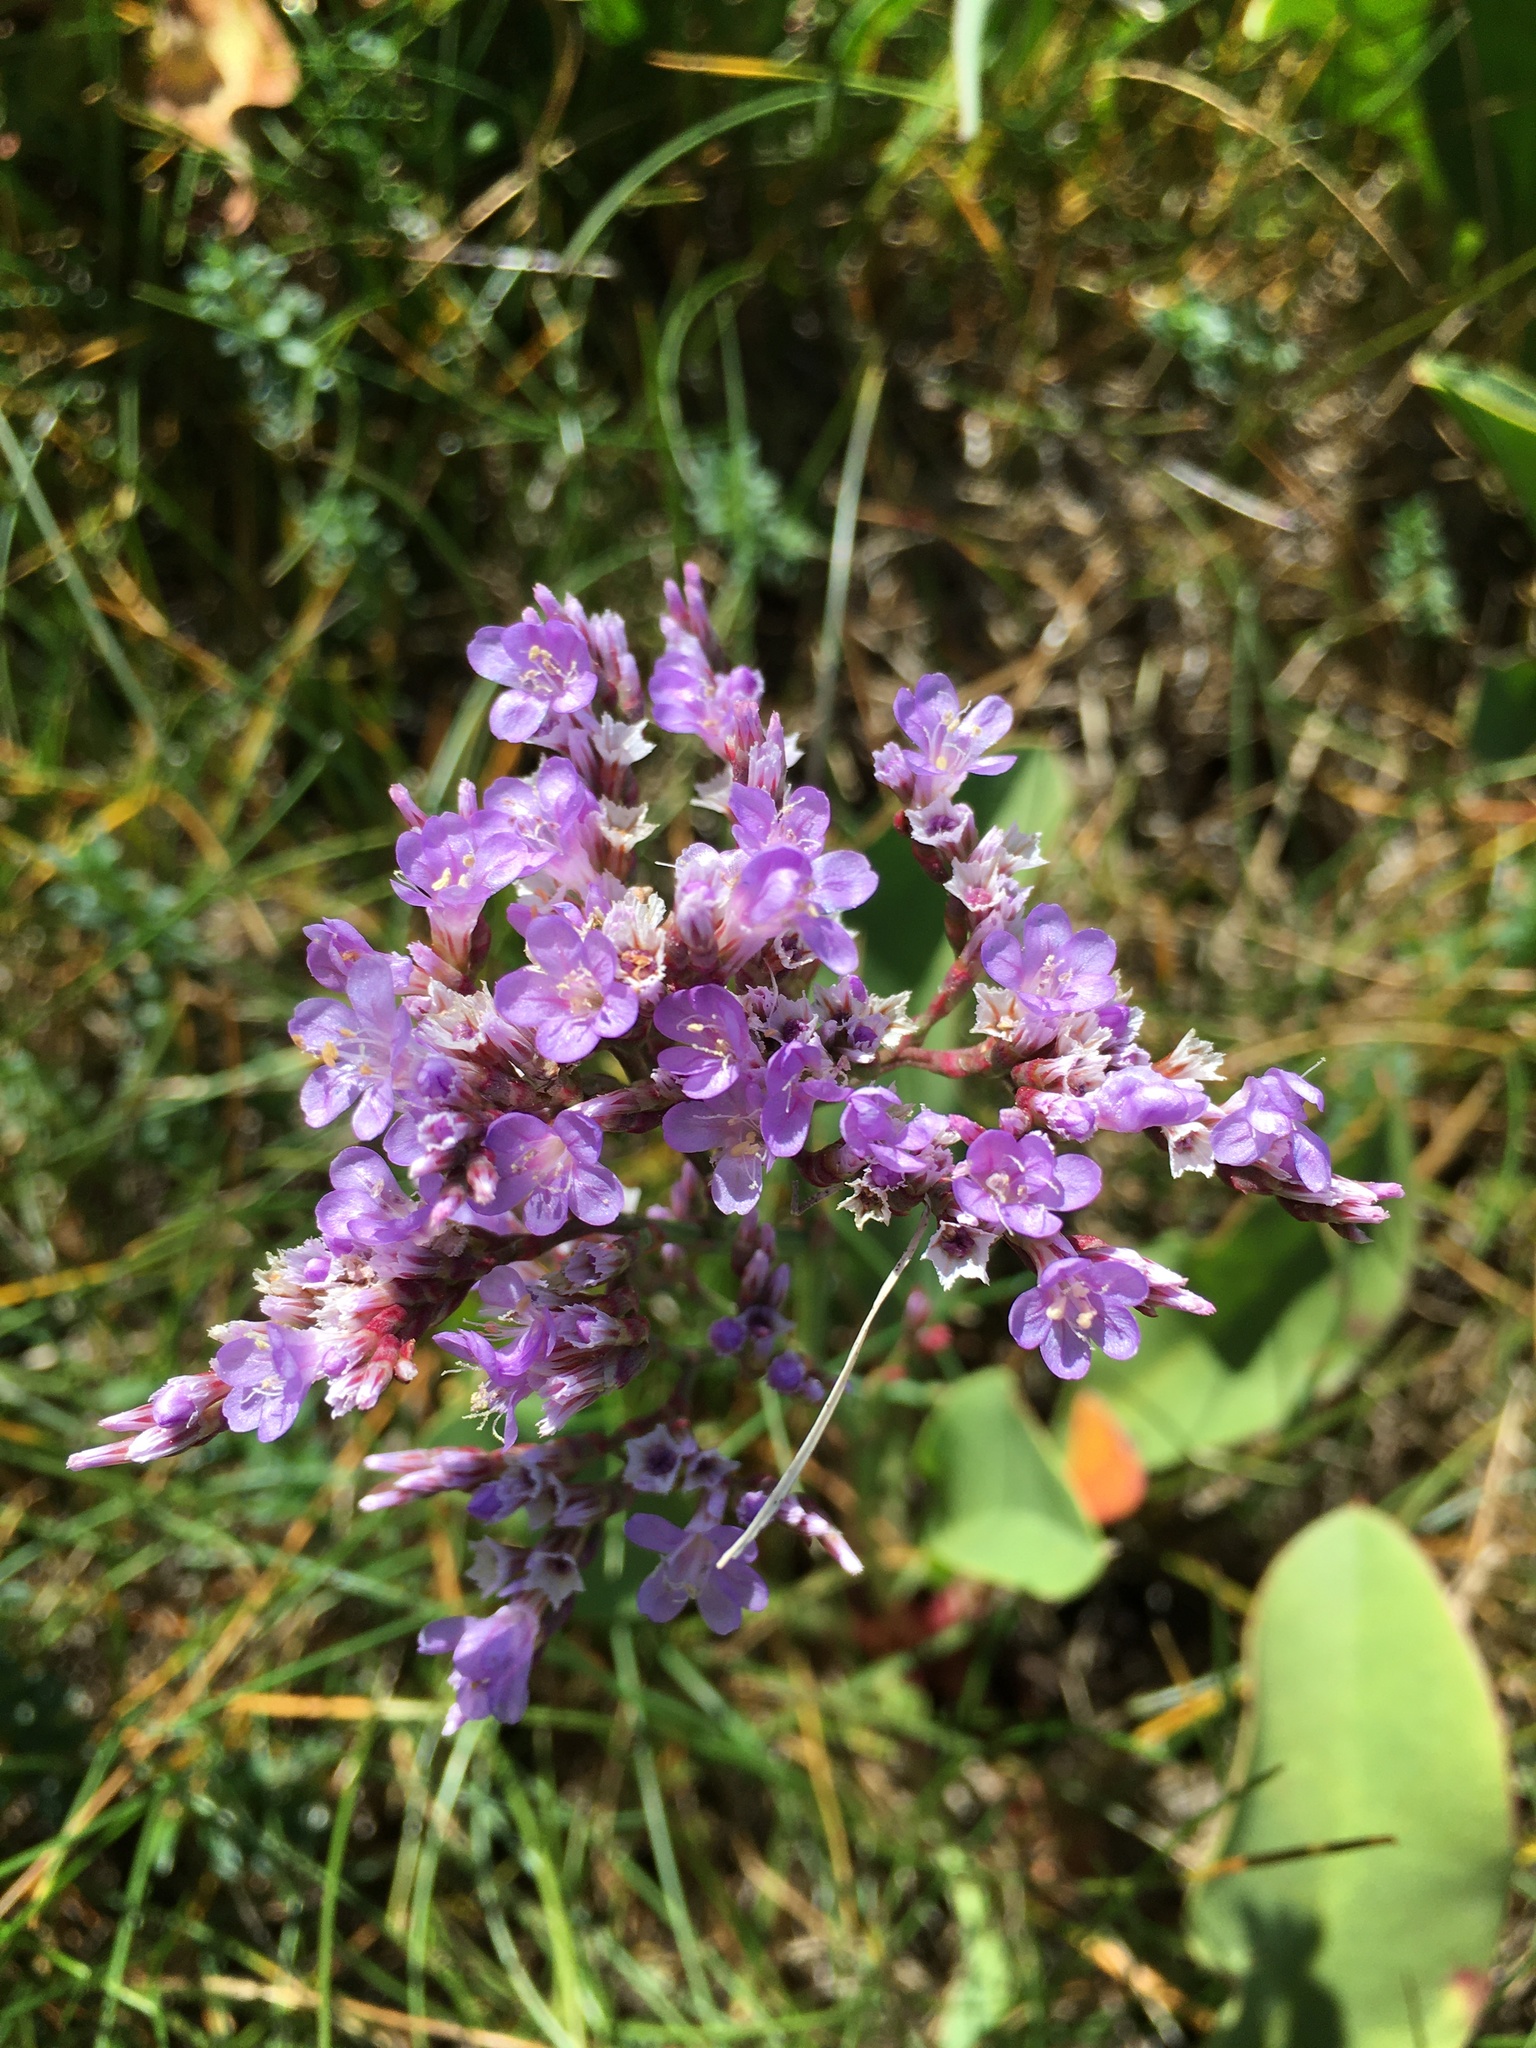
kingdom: Plantae
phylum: Tracheophyta
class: Magnoliopsida
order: Caryophyllales
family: Plumbaginaceae
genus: Limonium
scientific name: Limonium vulgare
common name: Common sea-lavender
